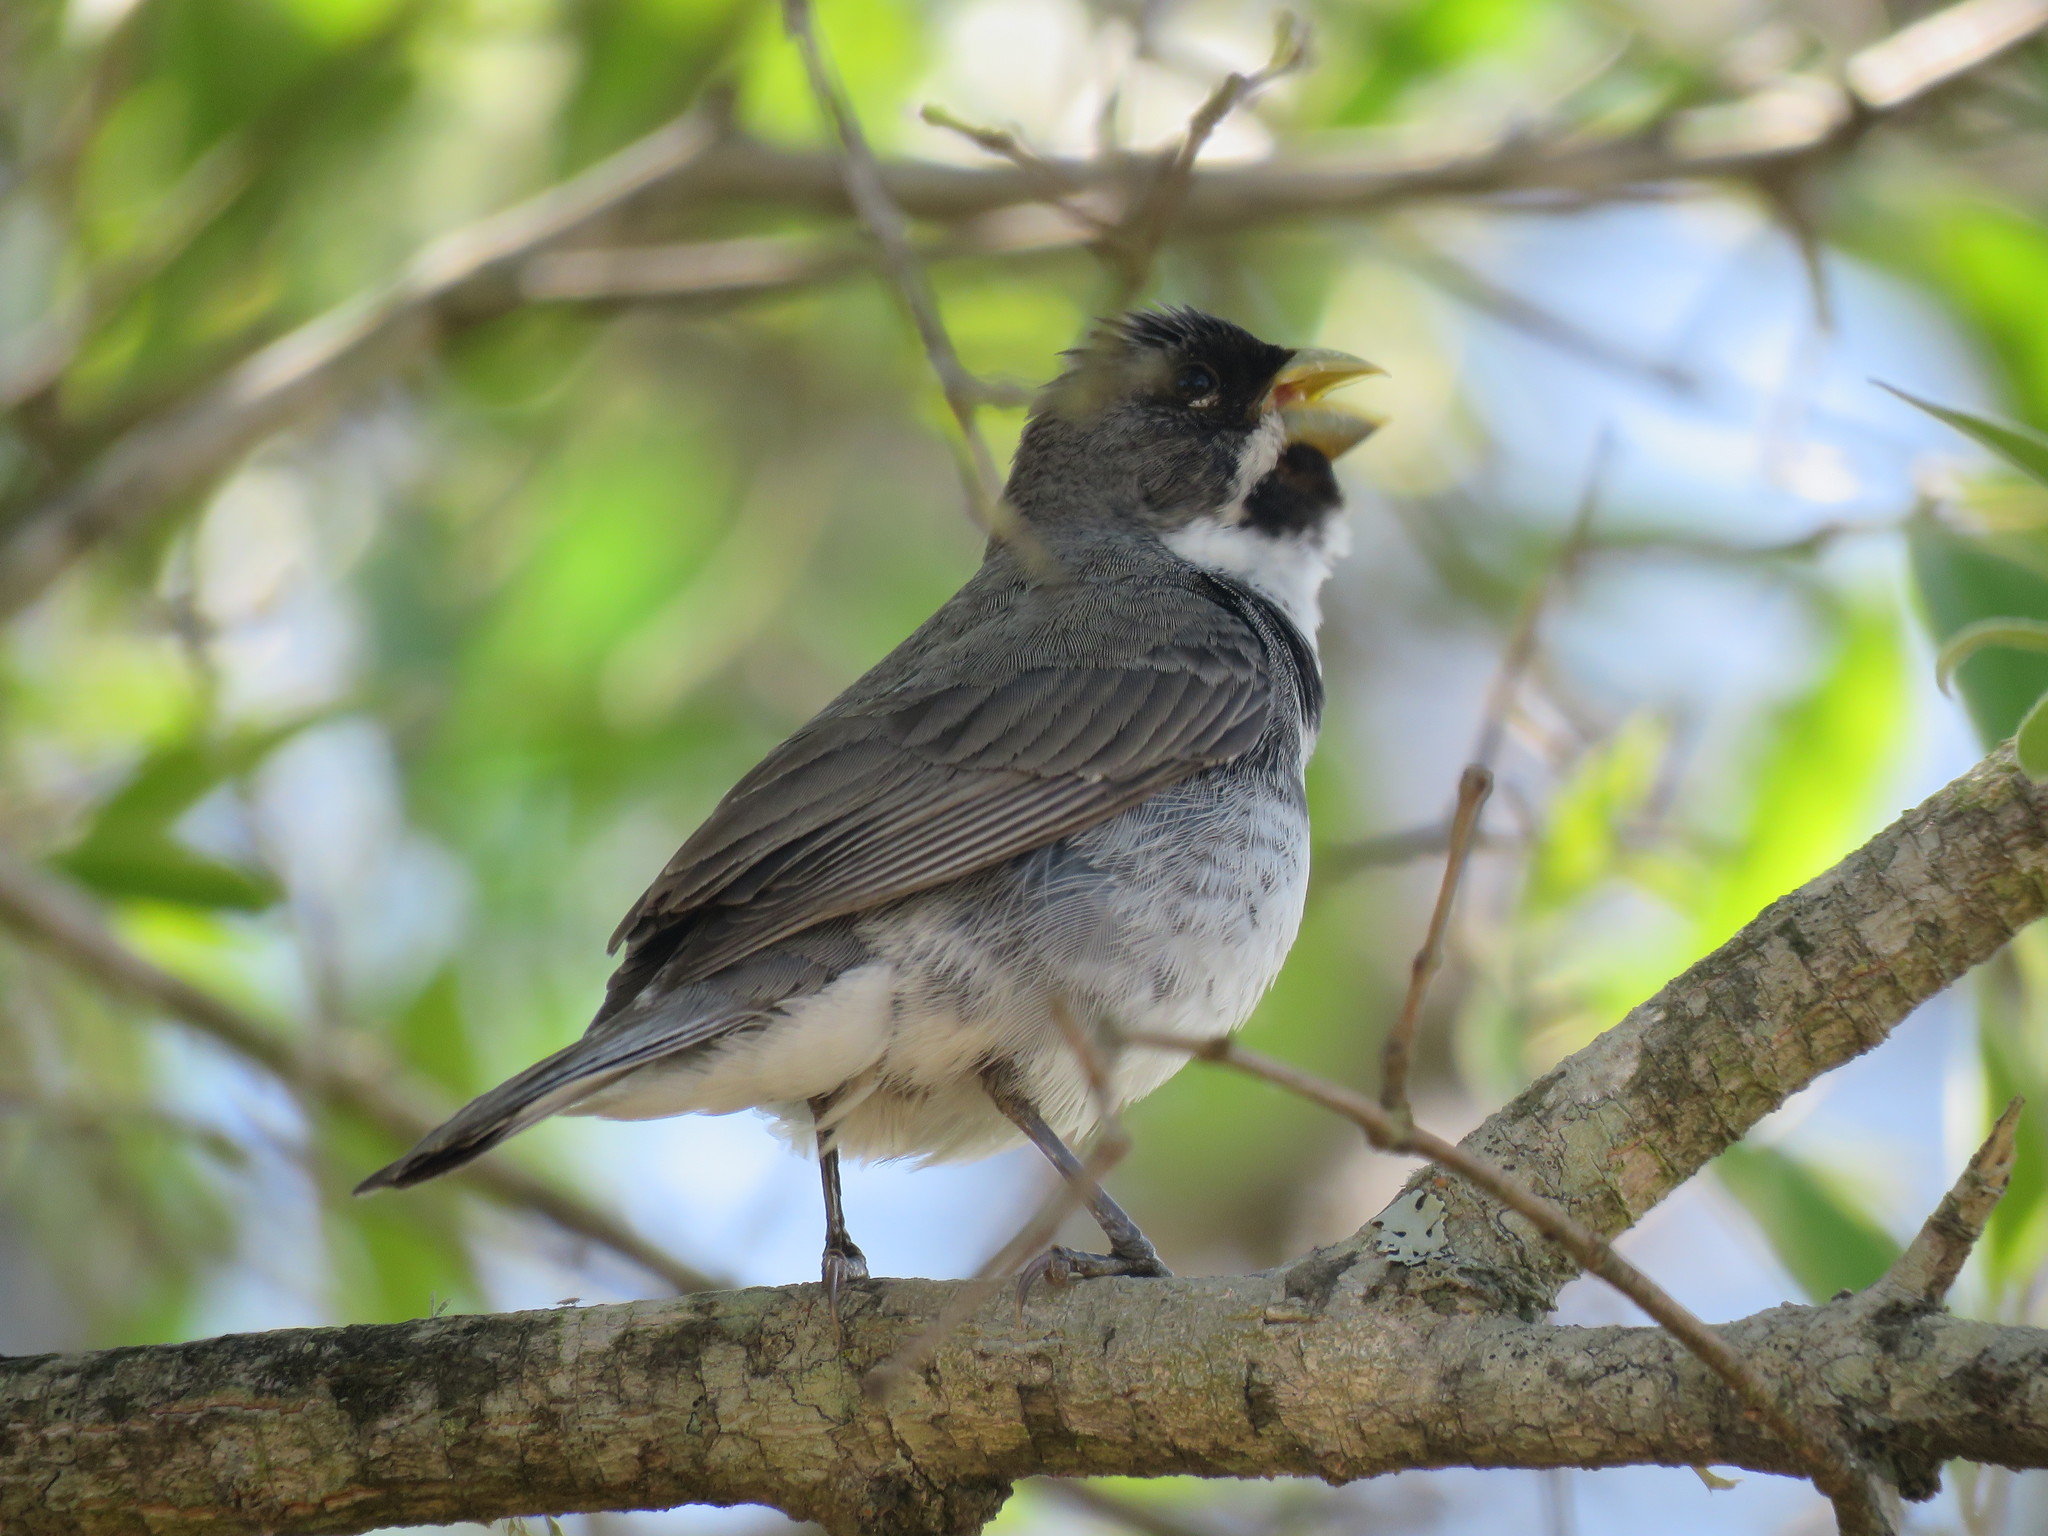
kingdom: Animalia
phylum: Chordata
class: Aves
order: Passeriformes
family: Thraupidae
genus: Sporophila
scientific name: Sporophila caerulescens
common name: Double-collared seedeater
